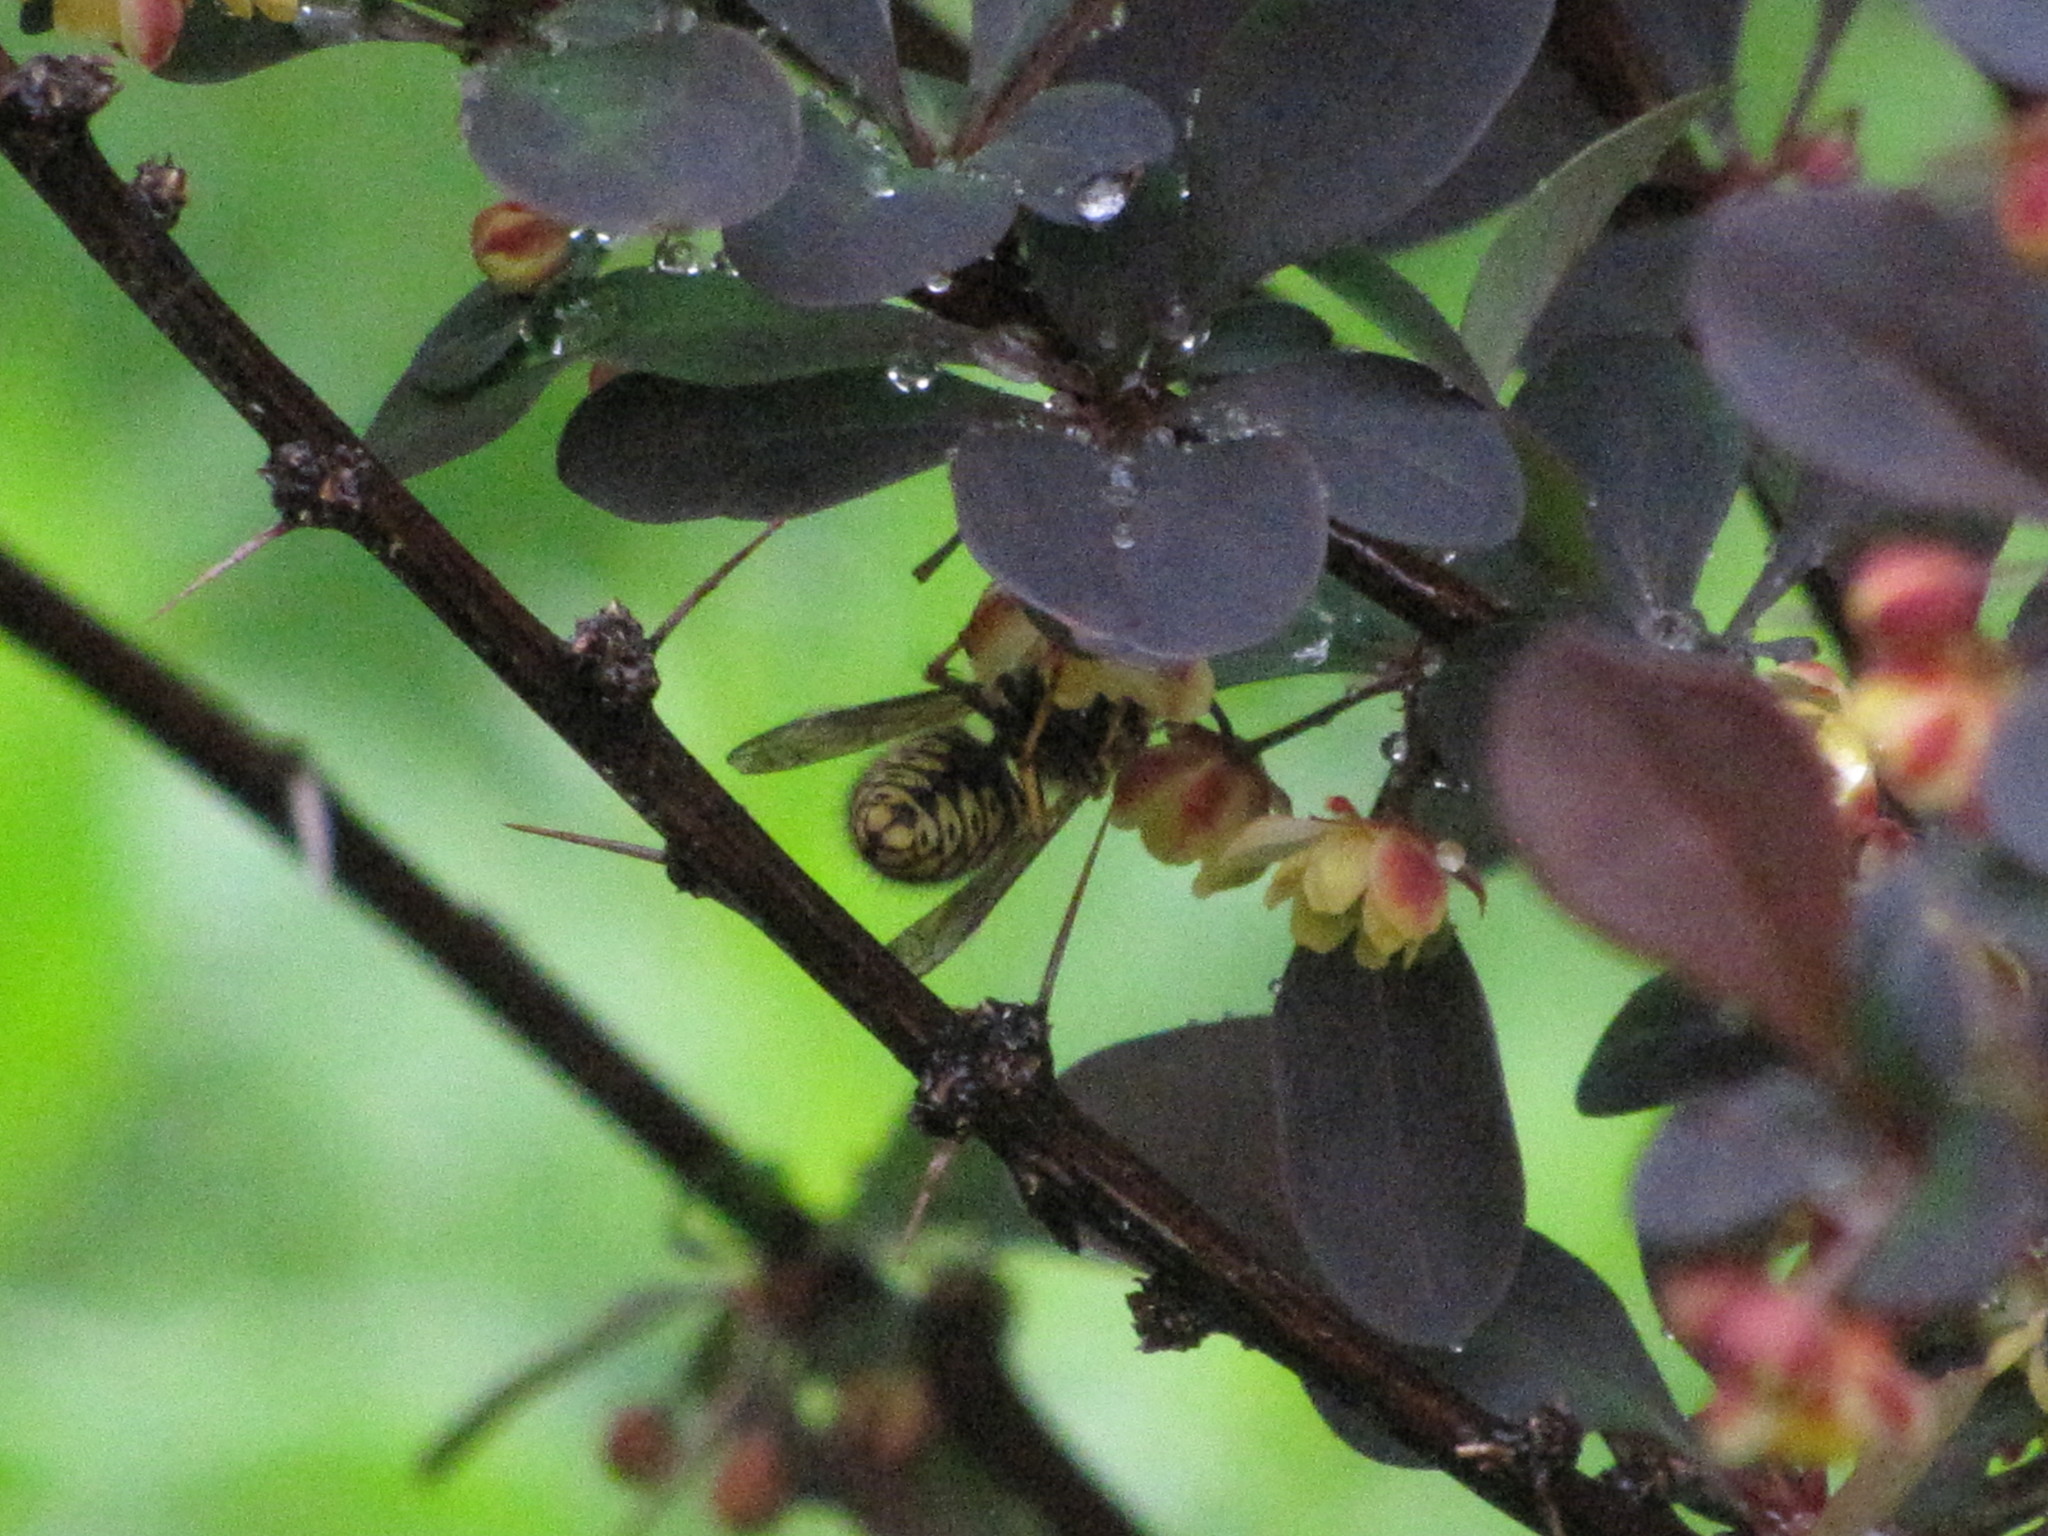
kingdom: Animalia
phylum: Arthropoda
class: Insecta
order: Hymenoptera
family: Vespidae
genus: Dolichovespula
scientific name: Dolichovespula arenaria
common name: Aerial yellowjacket
